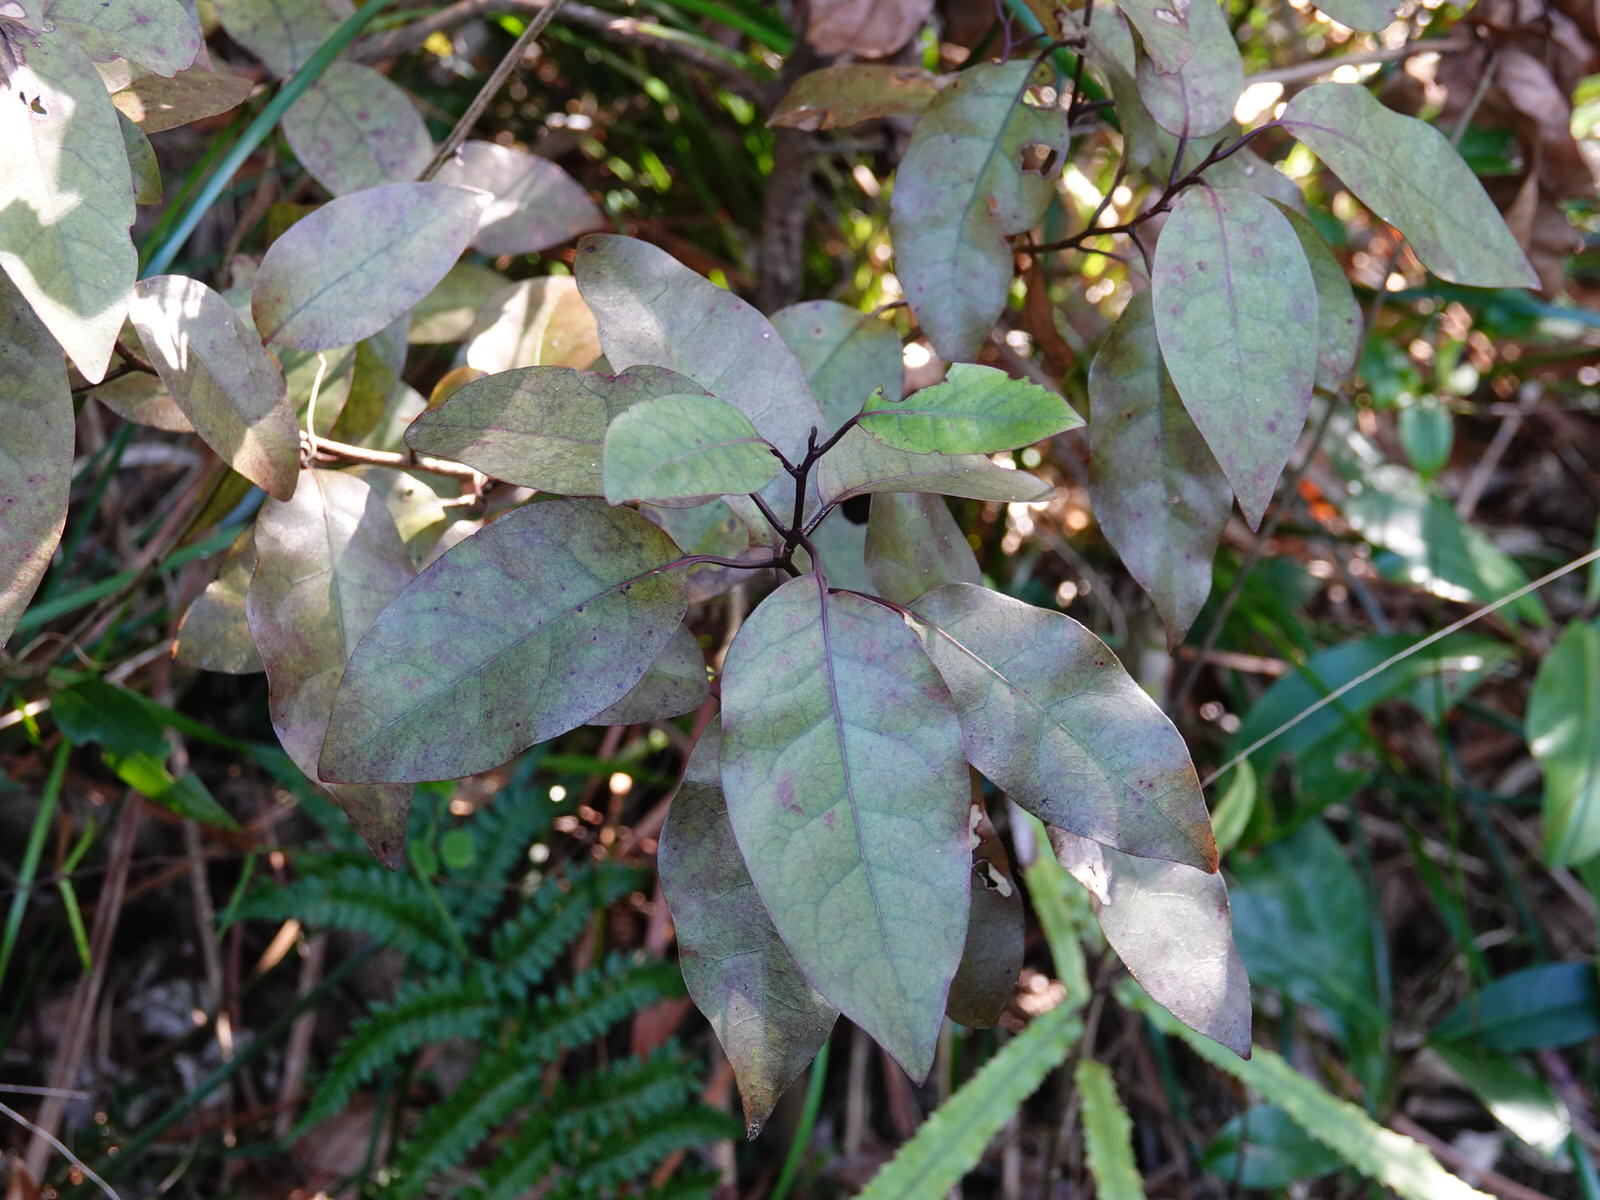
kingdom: Plantae
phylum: Tracheophyta
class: Magnoliopsida
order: Laurales
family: Lauraceae
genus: Litsea
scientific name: Litsea calicaris
